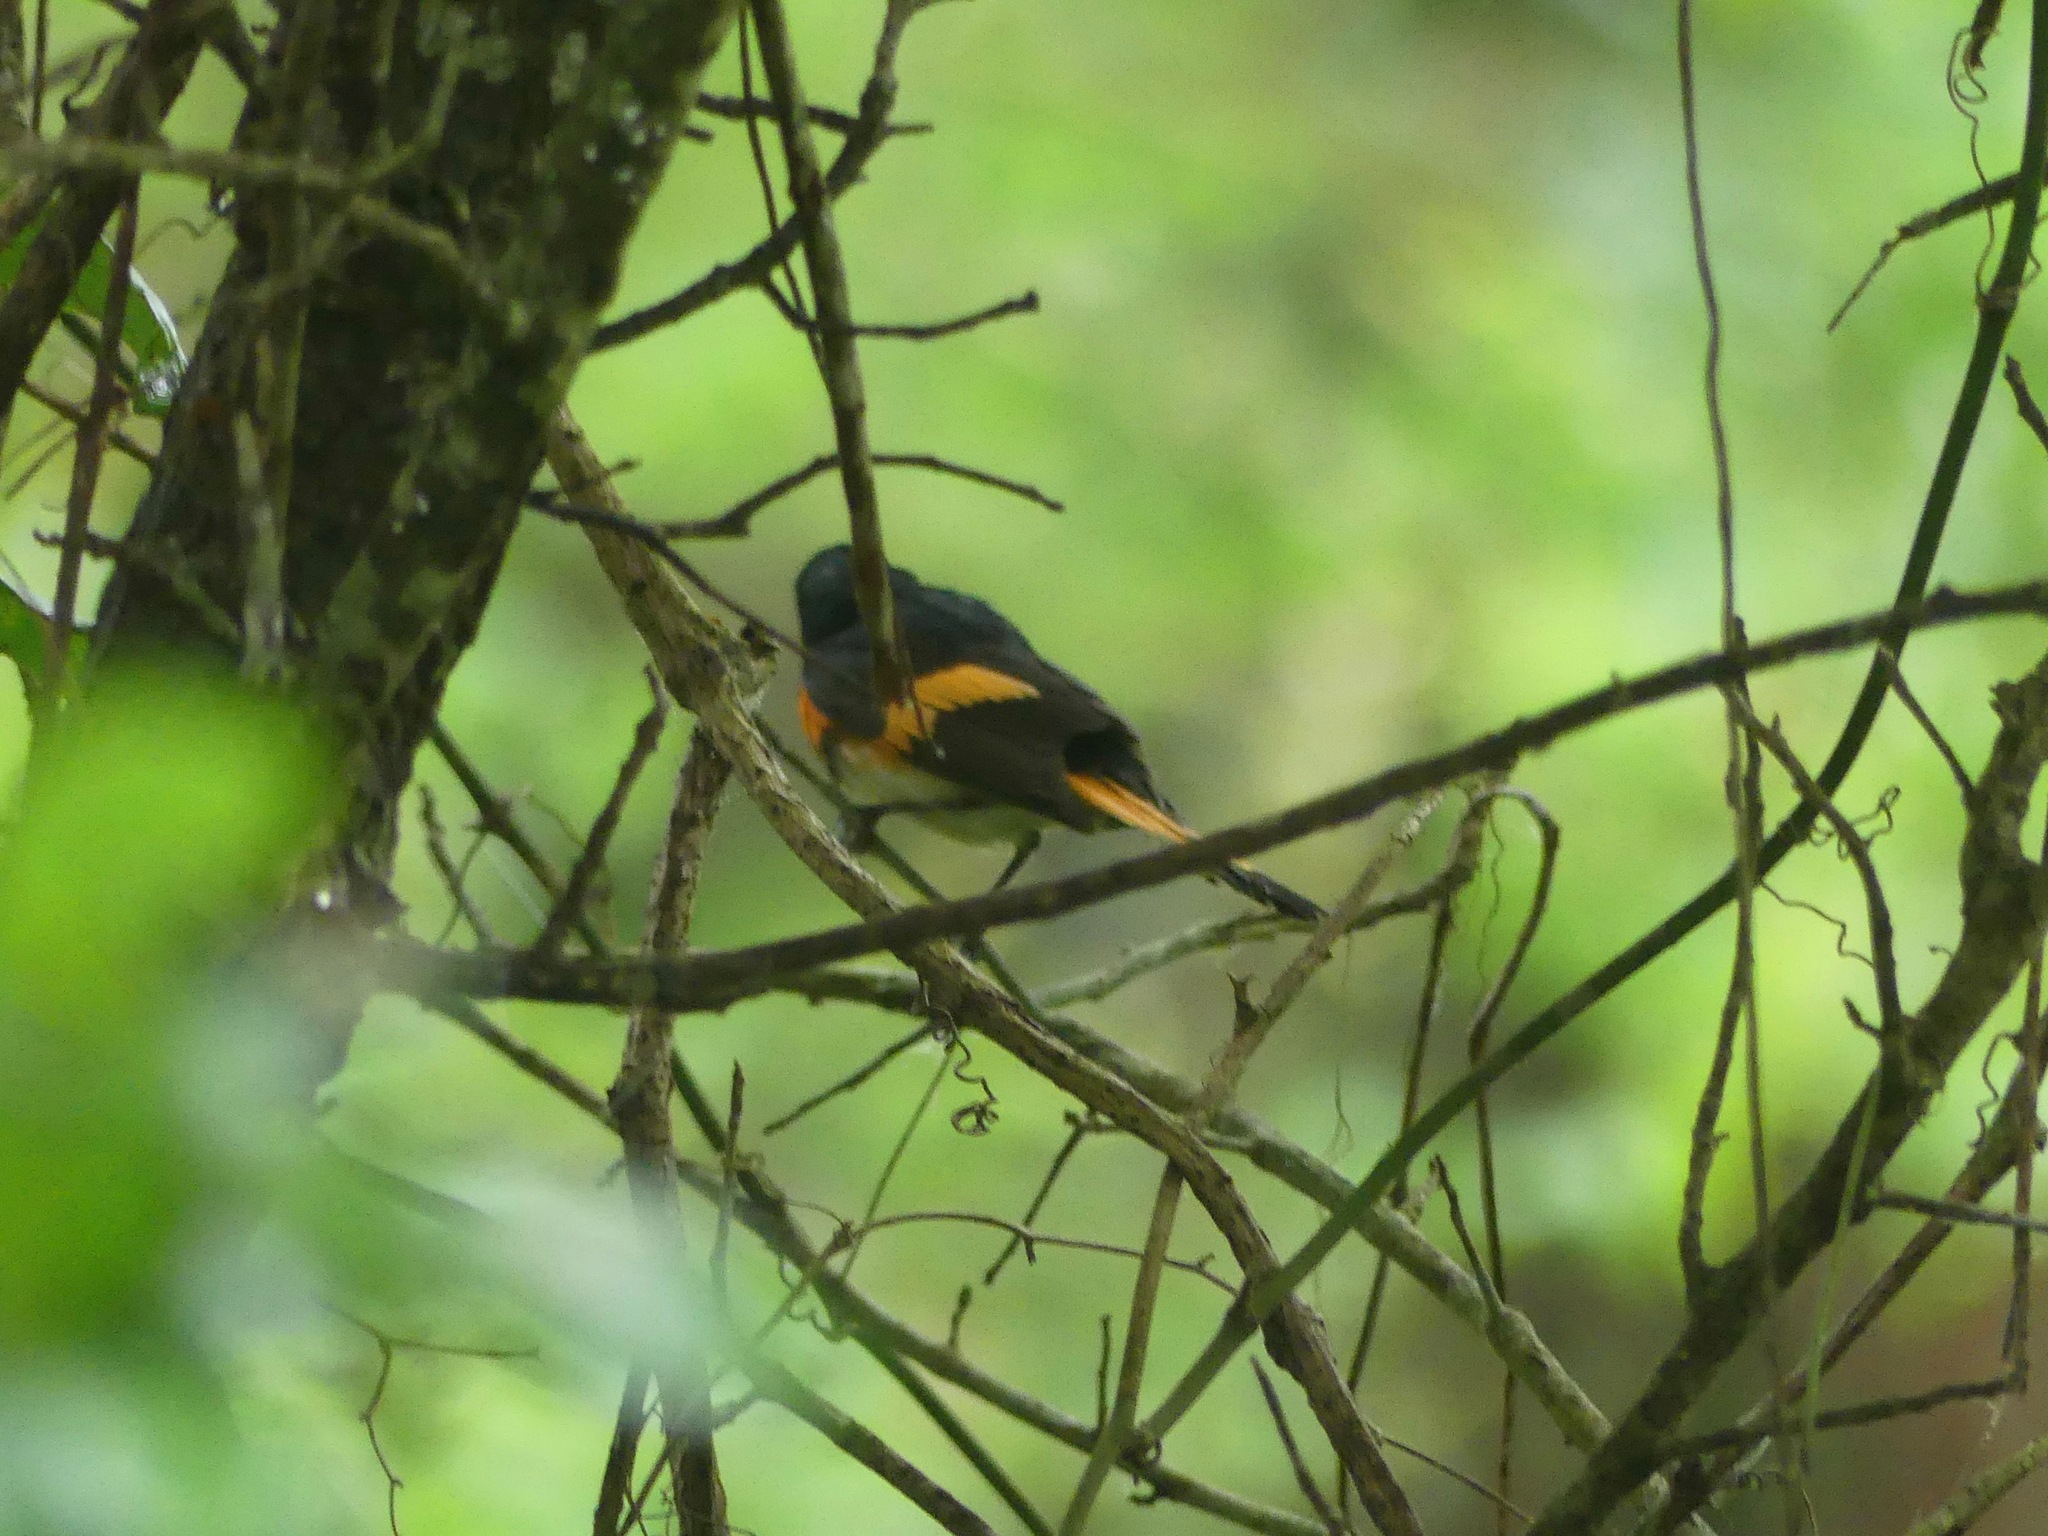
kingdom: Animalia
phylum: Chordata
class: Aves
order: Passeriformes
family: Parulidae
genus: Setophaga
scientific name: Setophaga ruticilla
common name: American redstart
